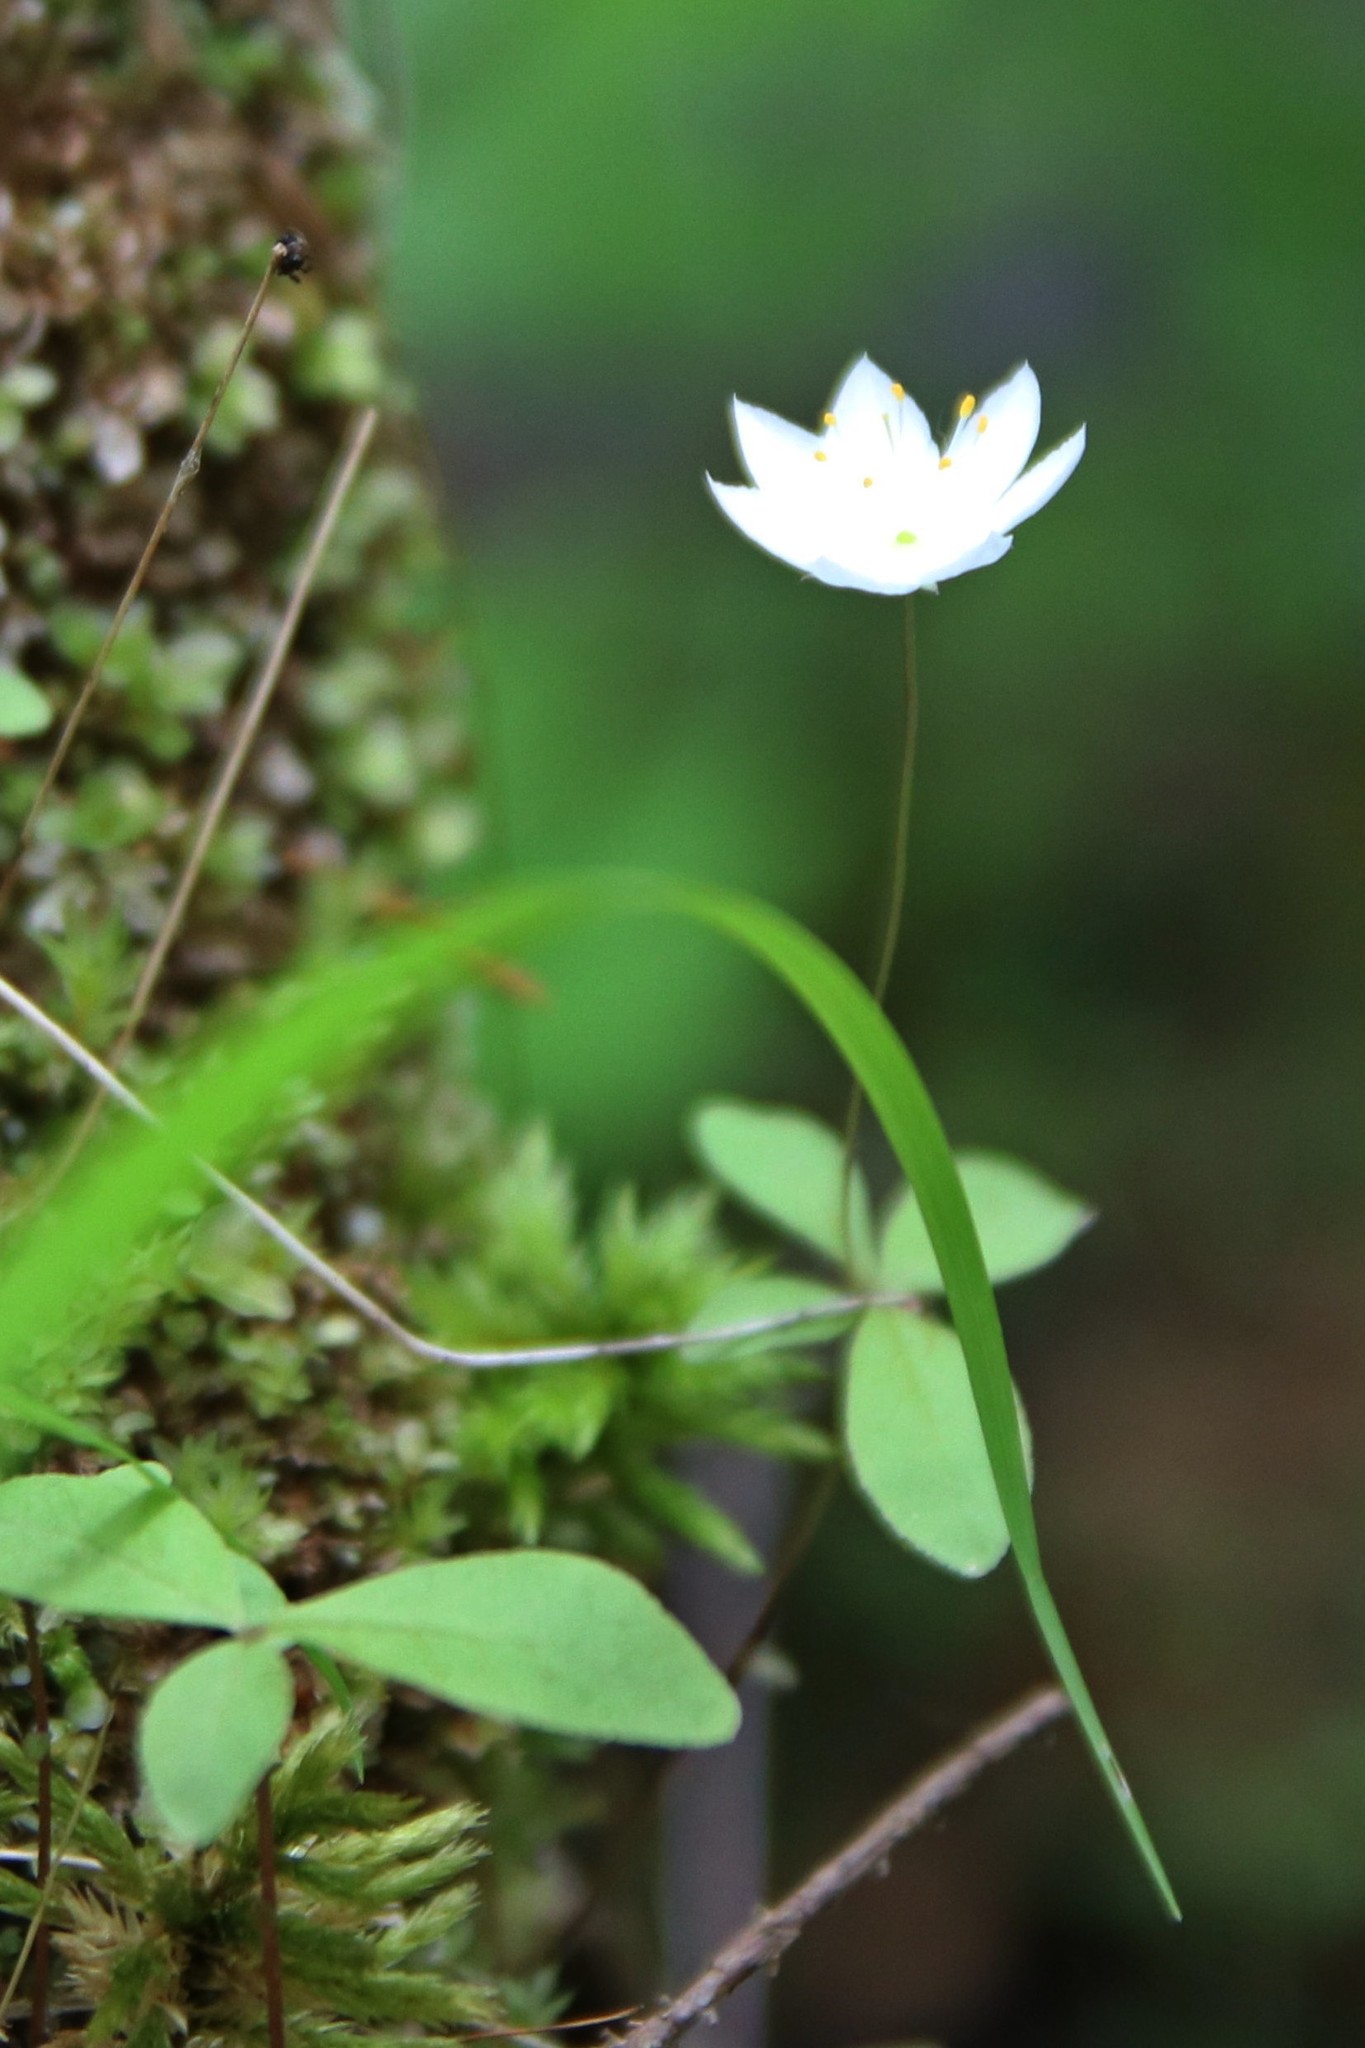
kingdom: Plantae
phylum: Tracheophyta
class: Magnoliopsida
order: Ericales
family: Primulaceae
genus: Lysimachia
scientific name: Lysimachia europaea
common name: Arctic starflower
